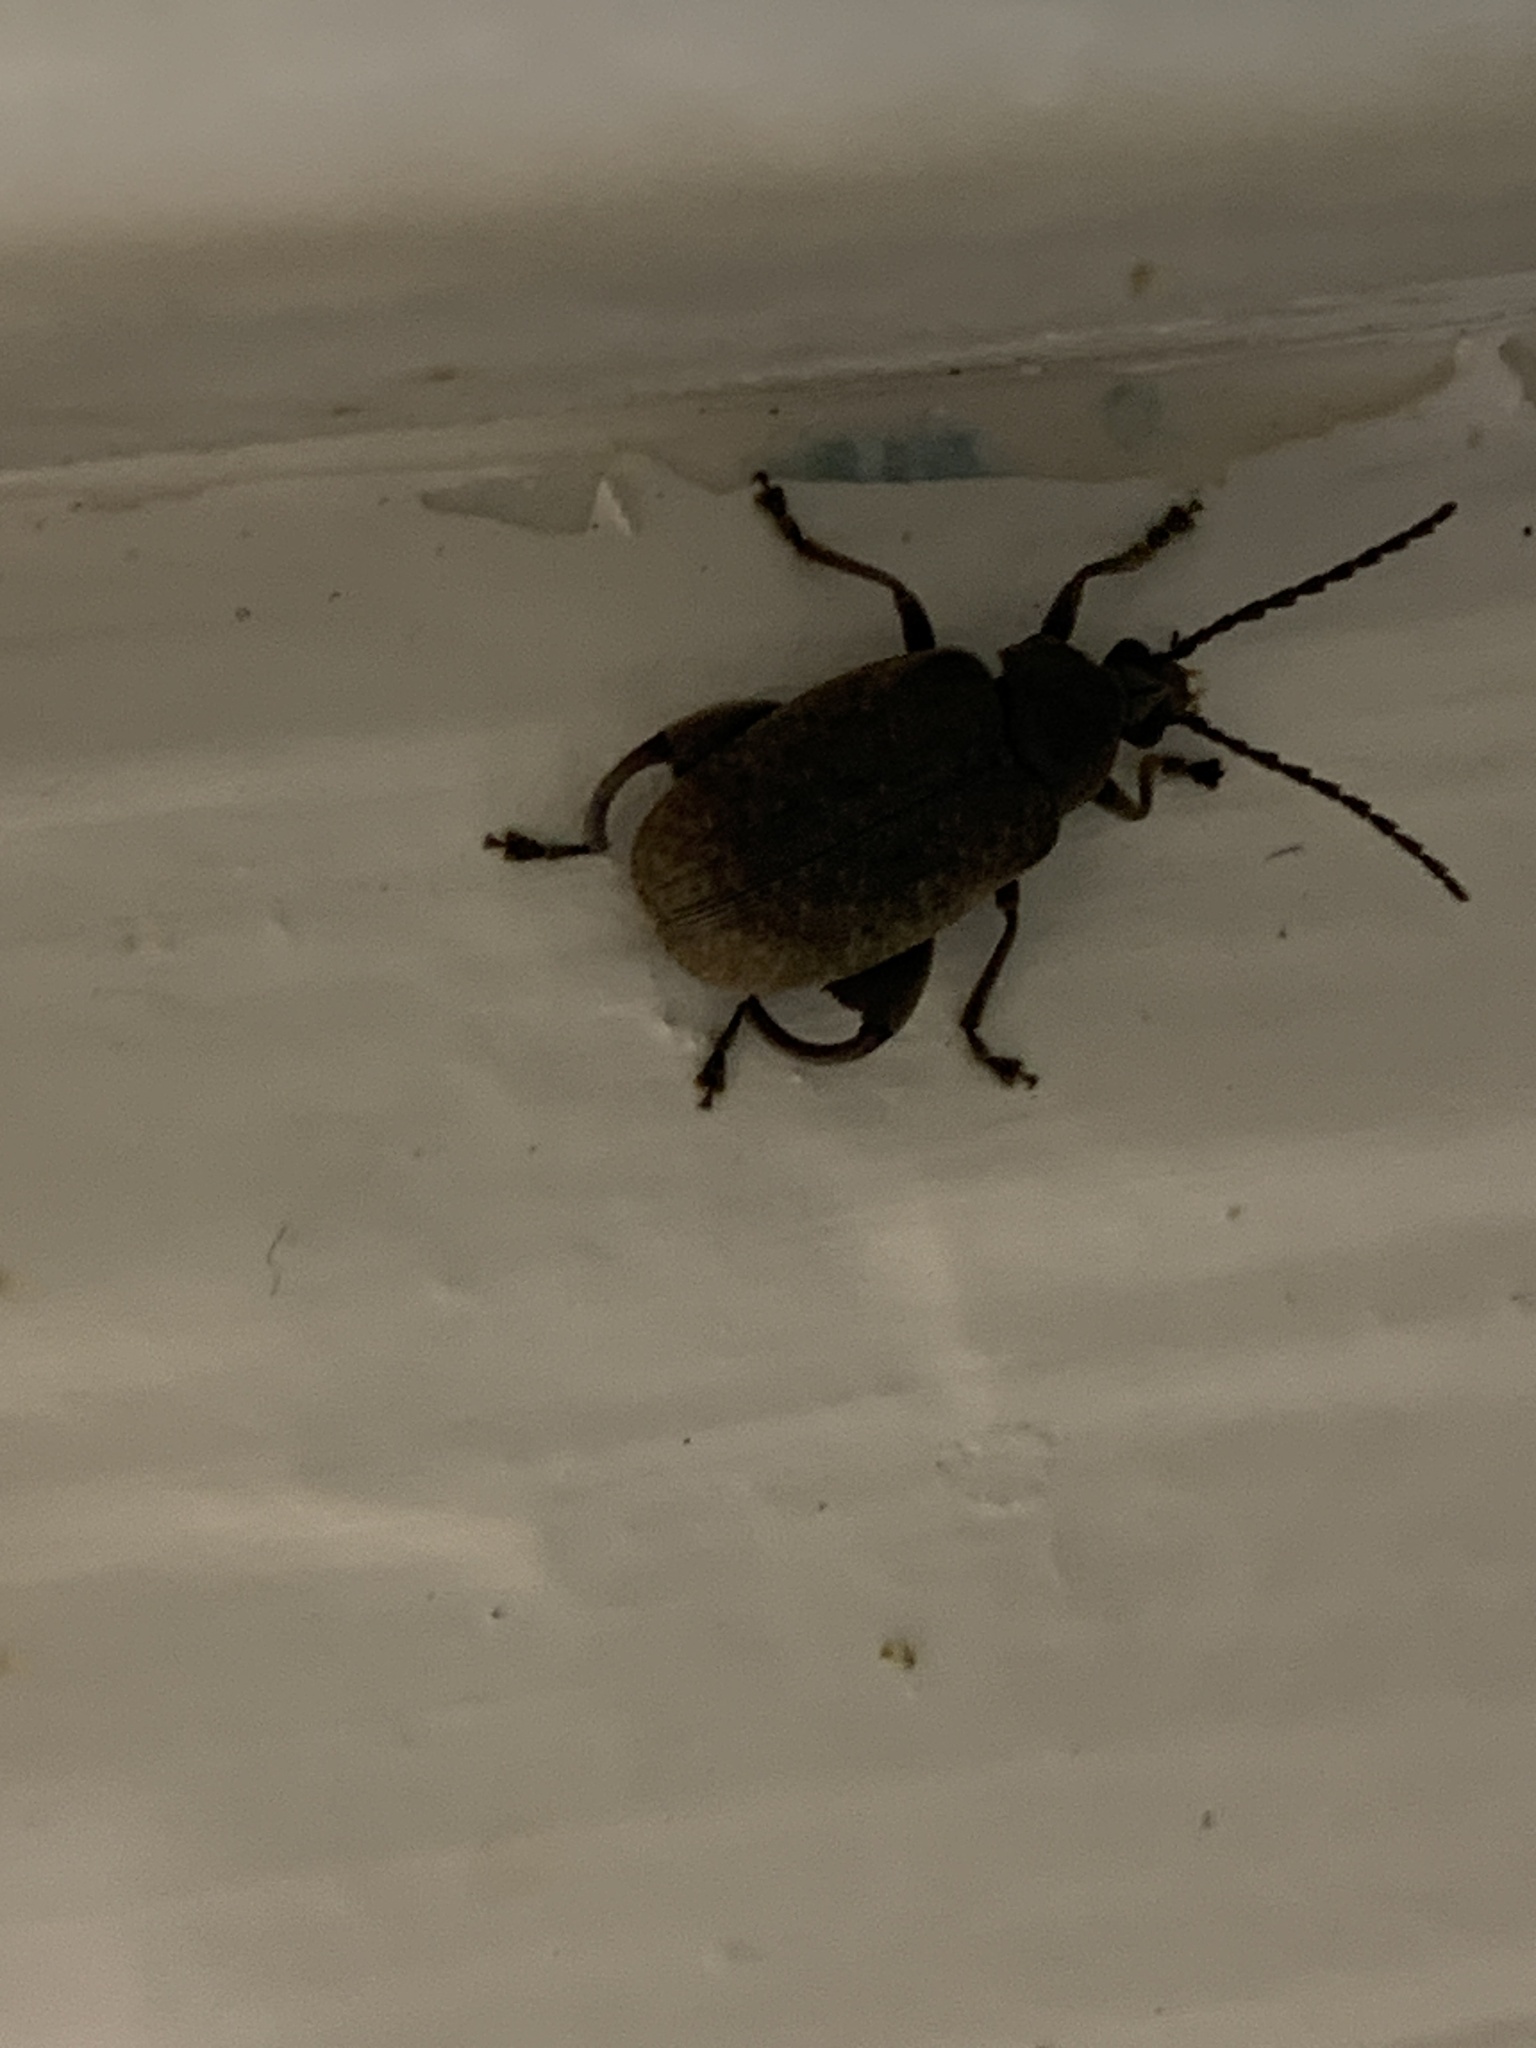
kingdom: Animalia
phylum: Arthropoda
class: Insecta
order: Coleoptera
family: Chrysomelidae
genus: Caryobruchus
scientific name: Caryobruchus gleditsiae
